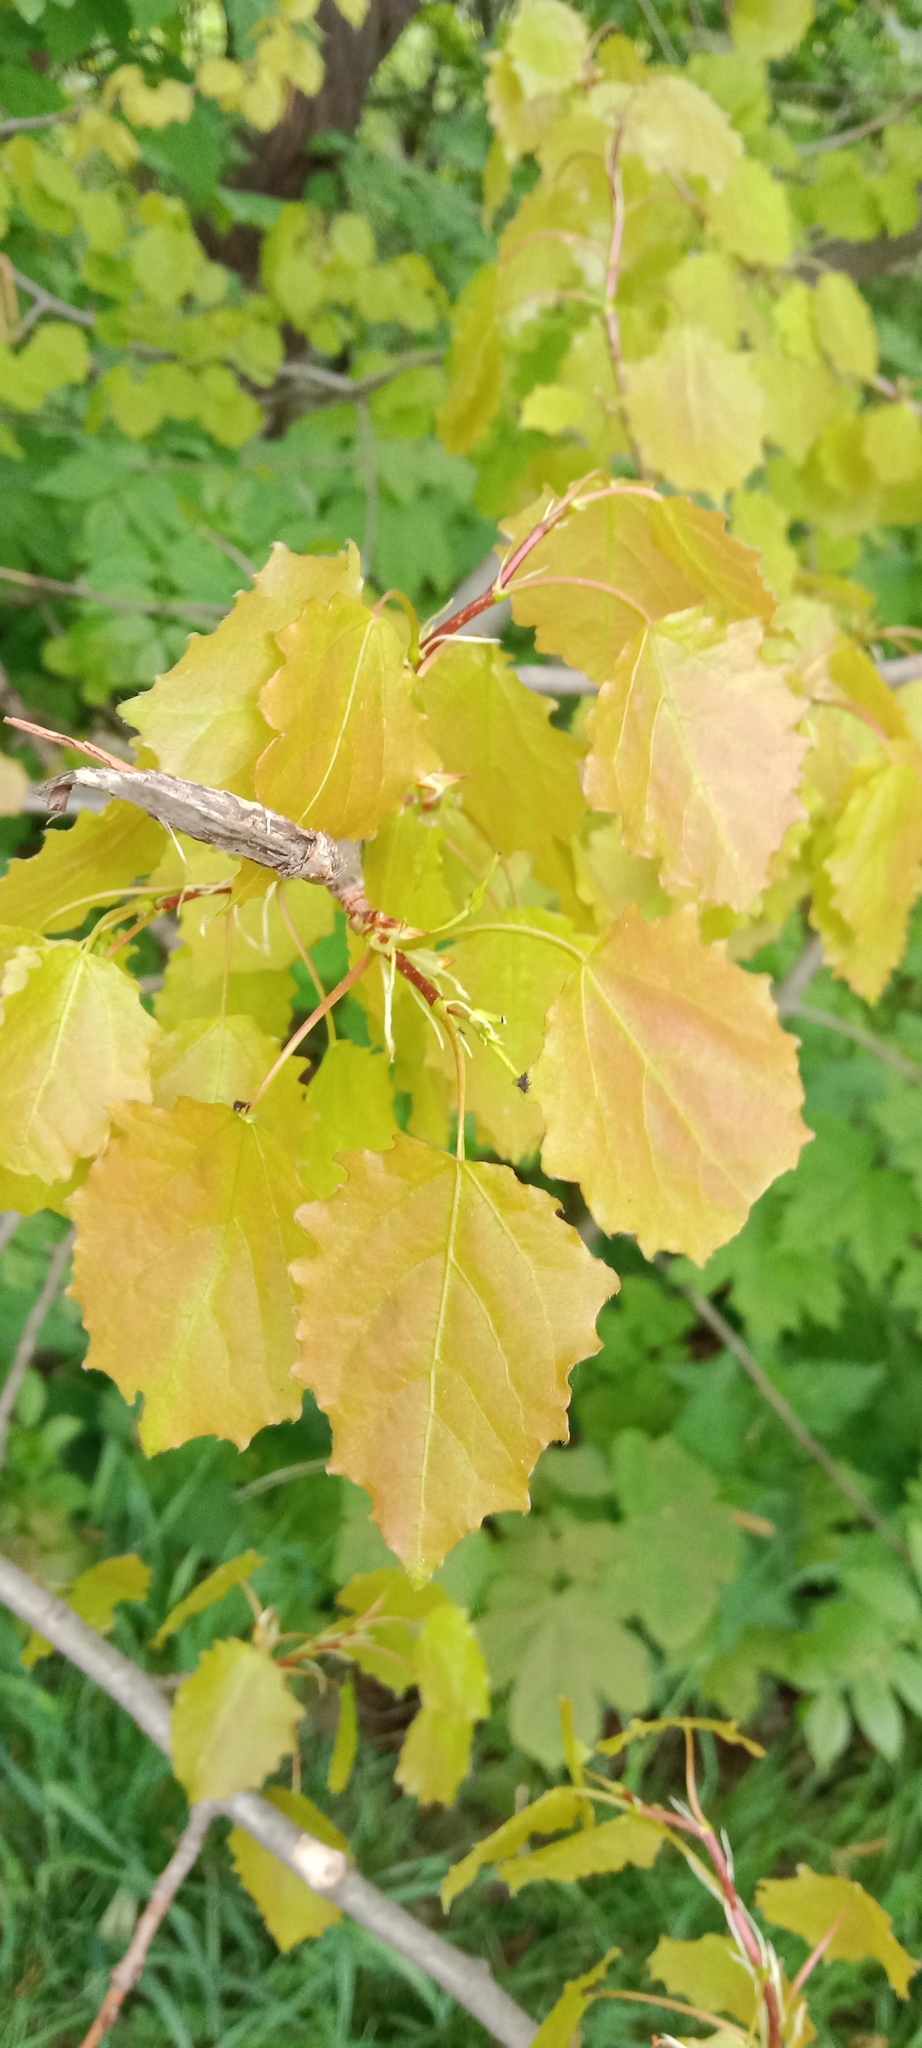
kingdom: Plantae
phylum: Tracheophyta
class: Magnoliopsida
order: Malpighiales
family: Salicaceae
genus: Populus
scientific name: Populus tremula
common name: European aspen
